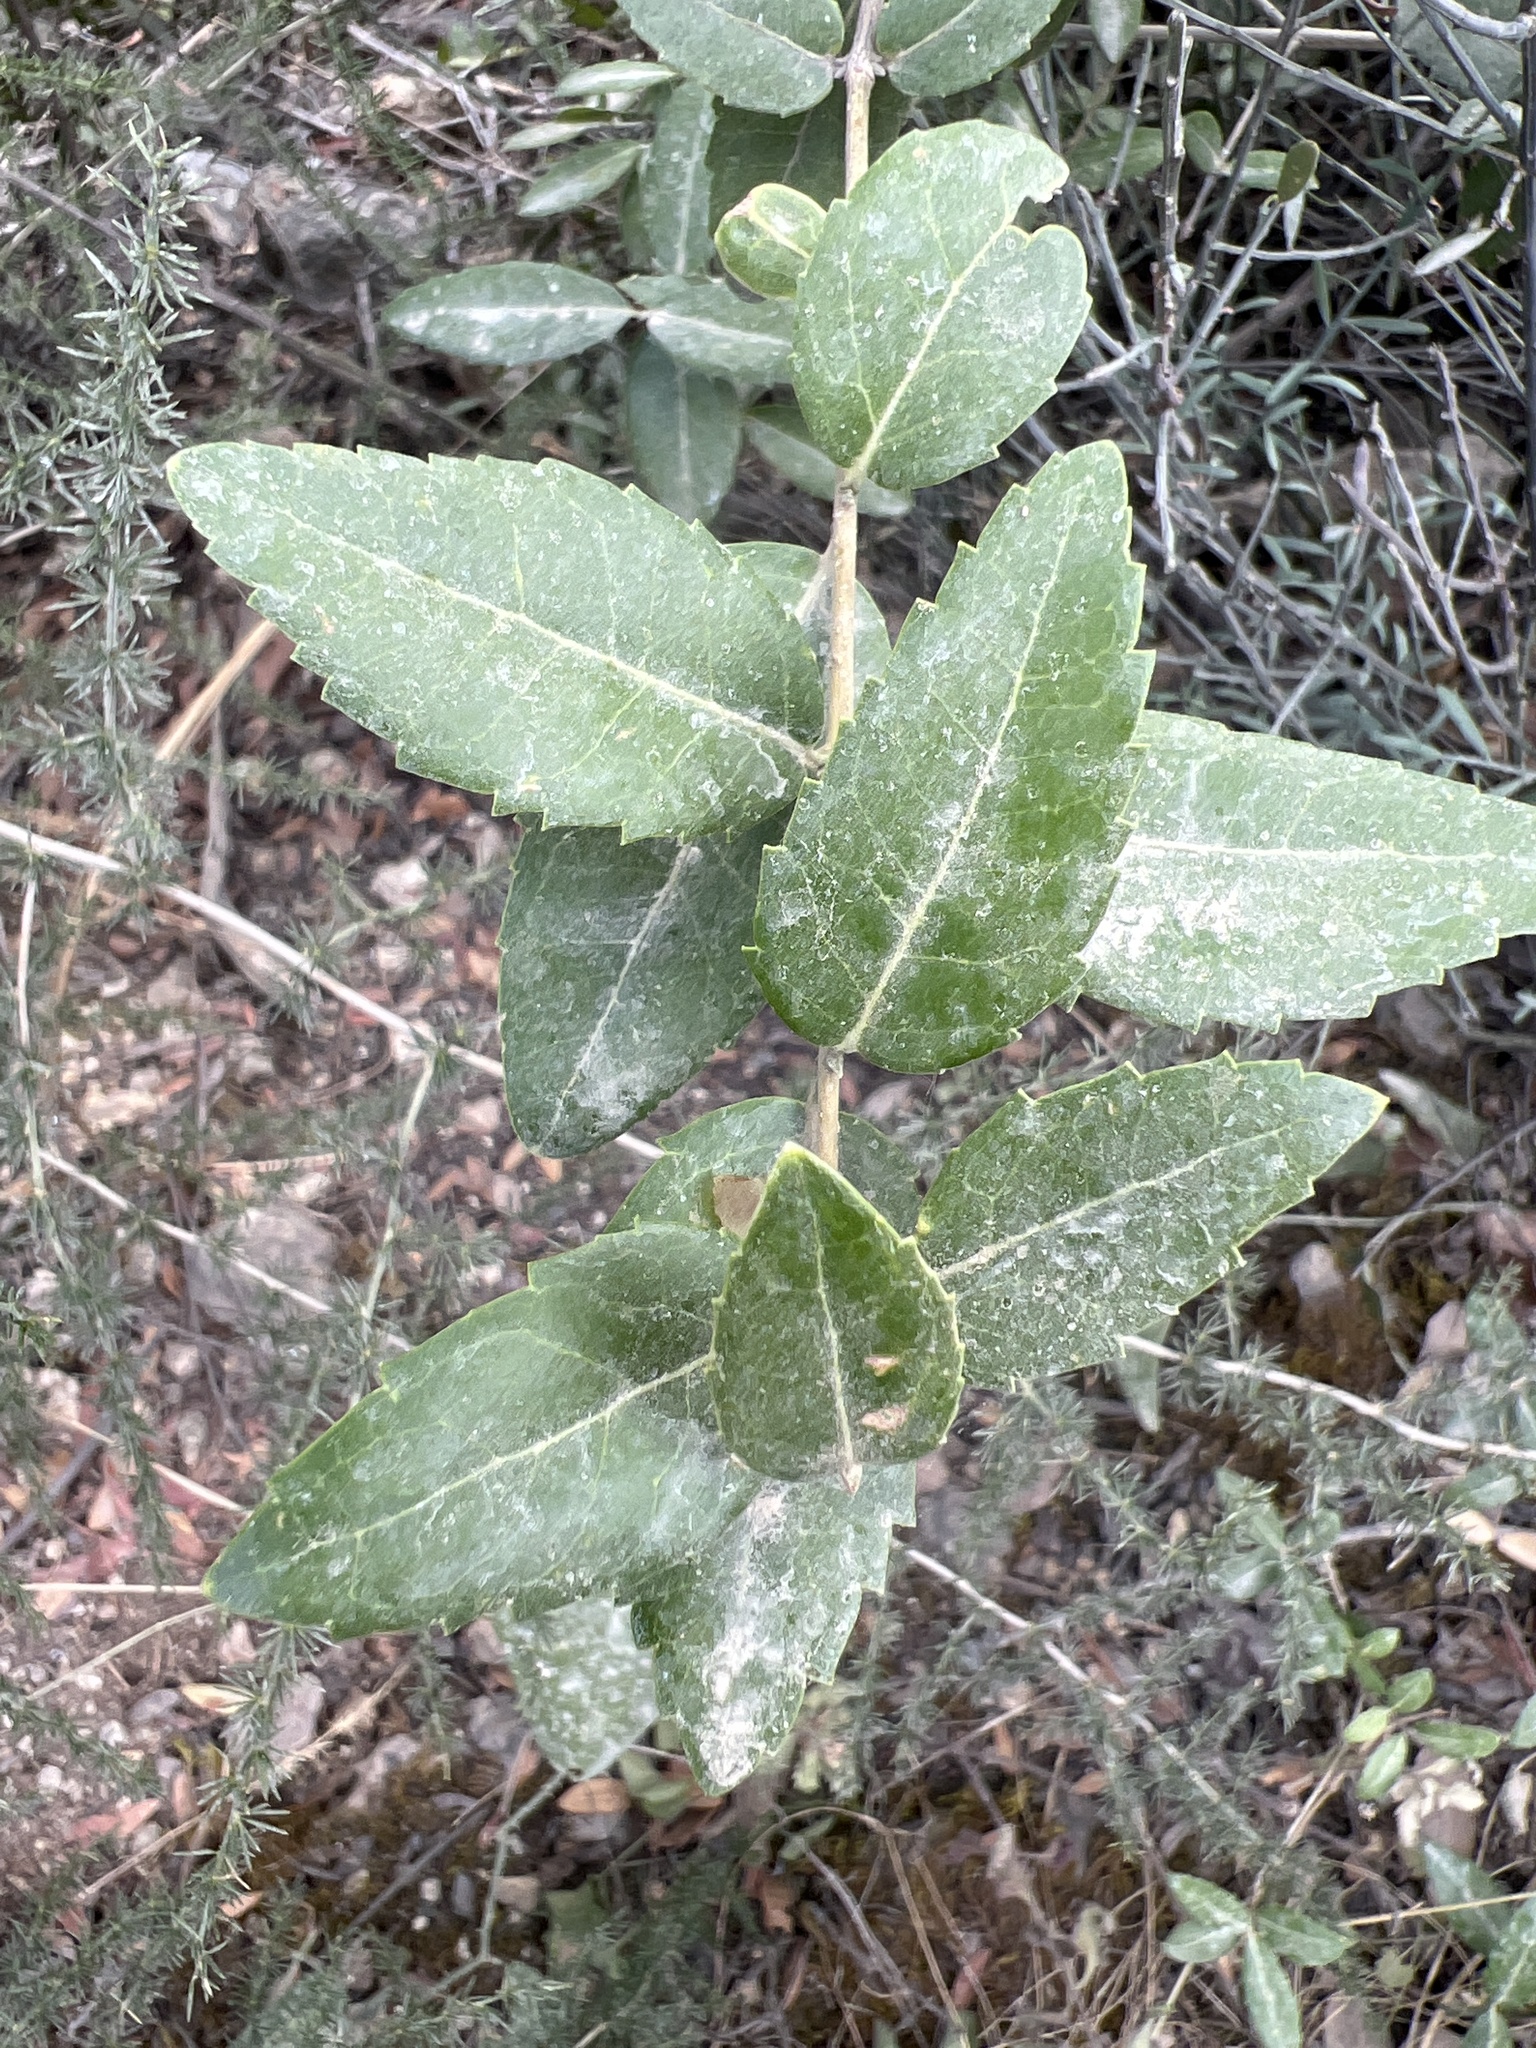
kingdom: Plantae
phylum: Tracheophyta
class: Magnoliopsida
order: Lamiales
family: Oleaceae
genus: Phillyrea
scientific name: Phillyrea latifolia
